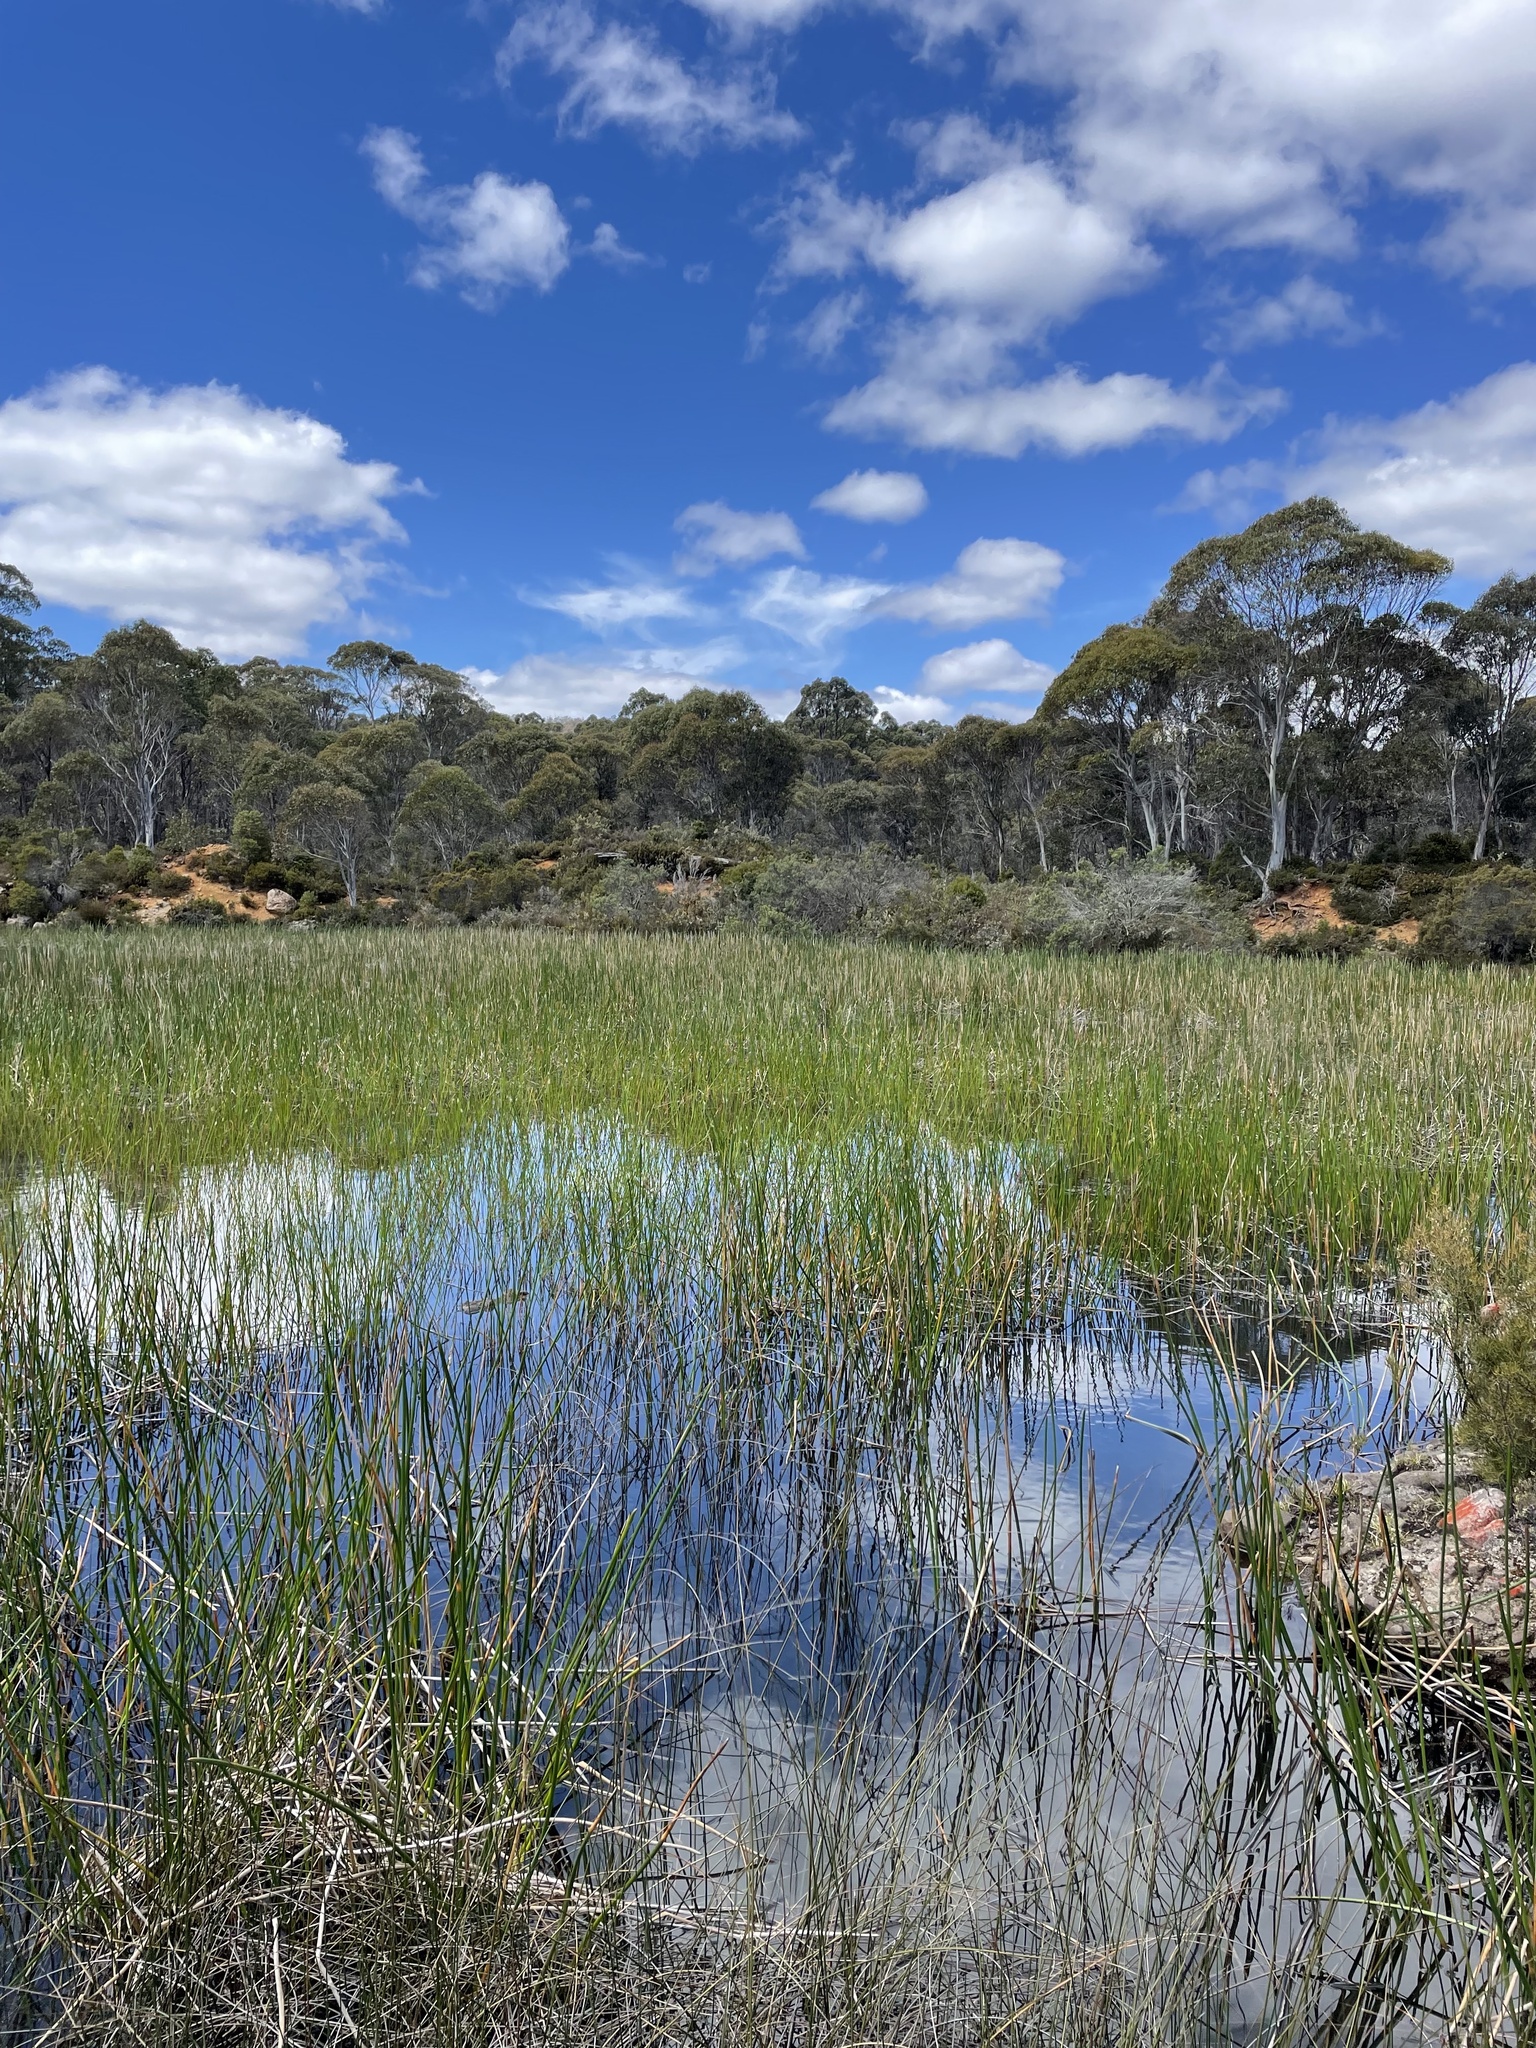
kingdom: Plantae
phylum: Tracheophyta
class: Liliopsida
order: Poales
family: Cyperaceae
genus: Eleocharis
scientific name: Eleocharis sphacelata
